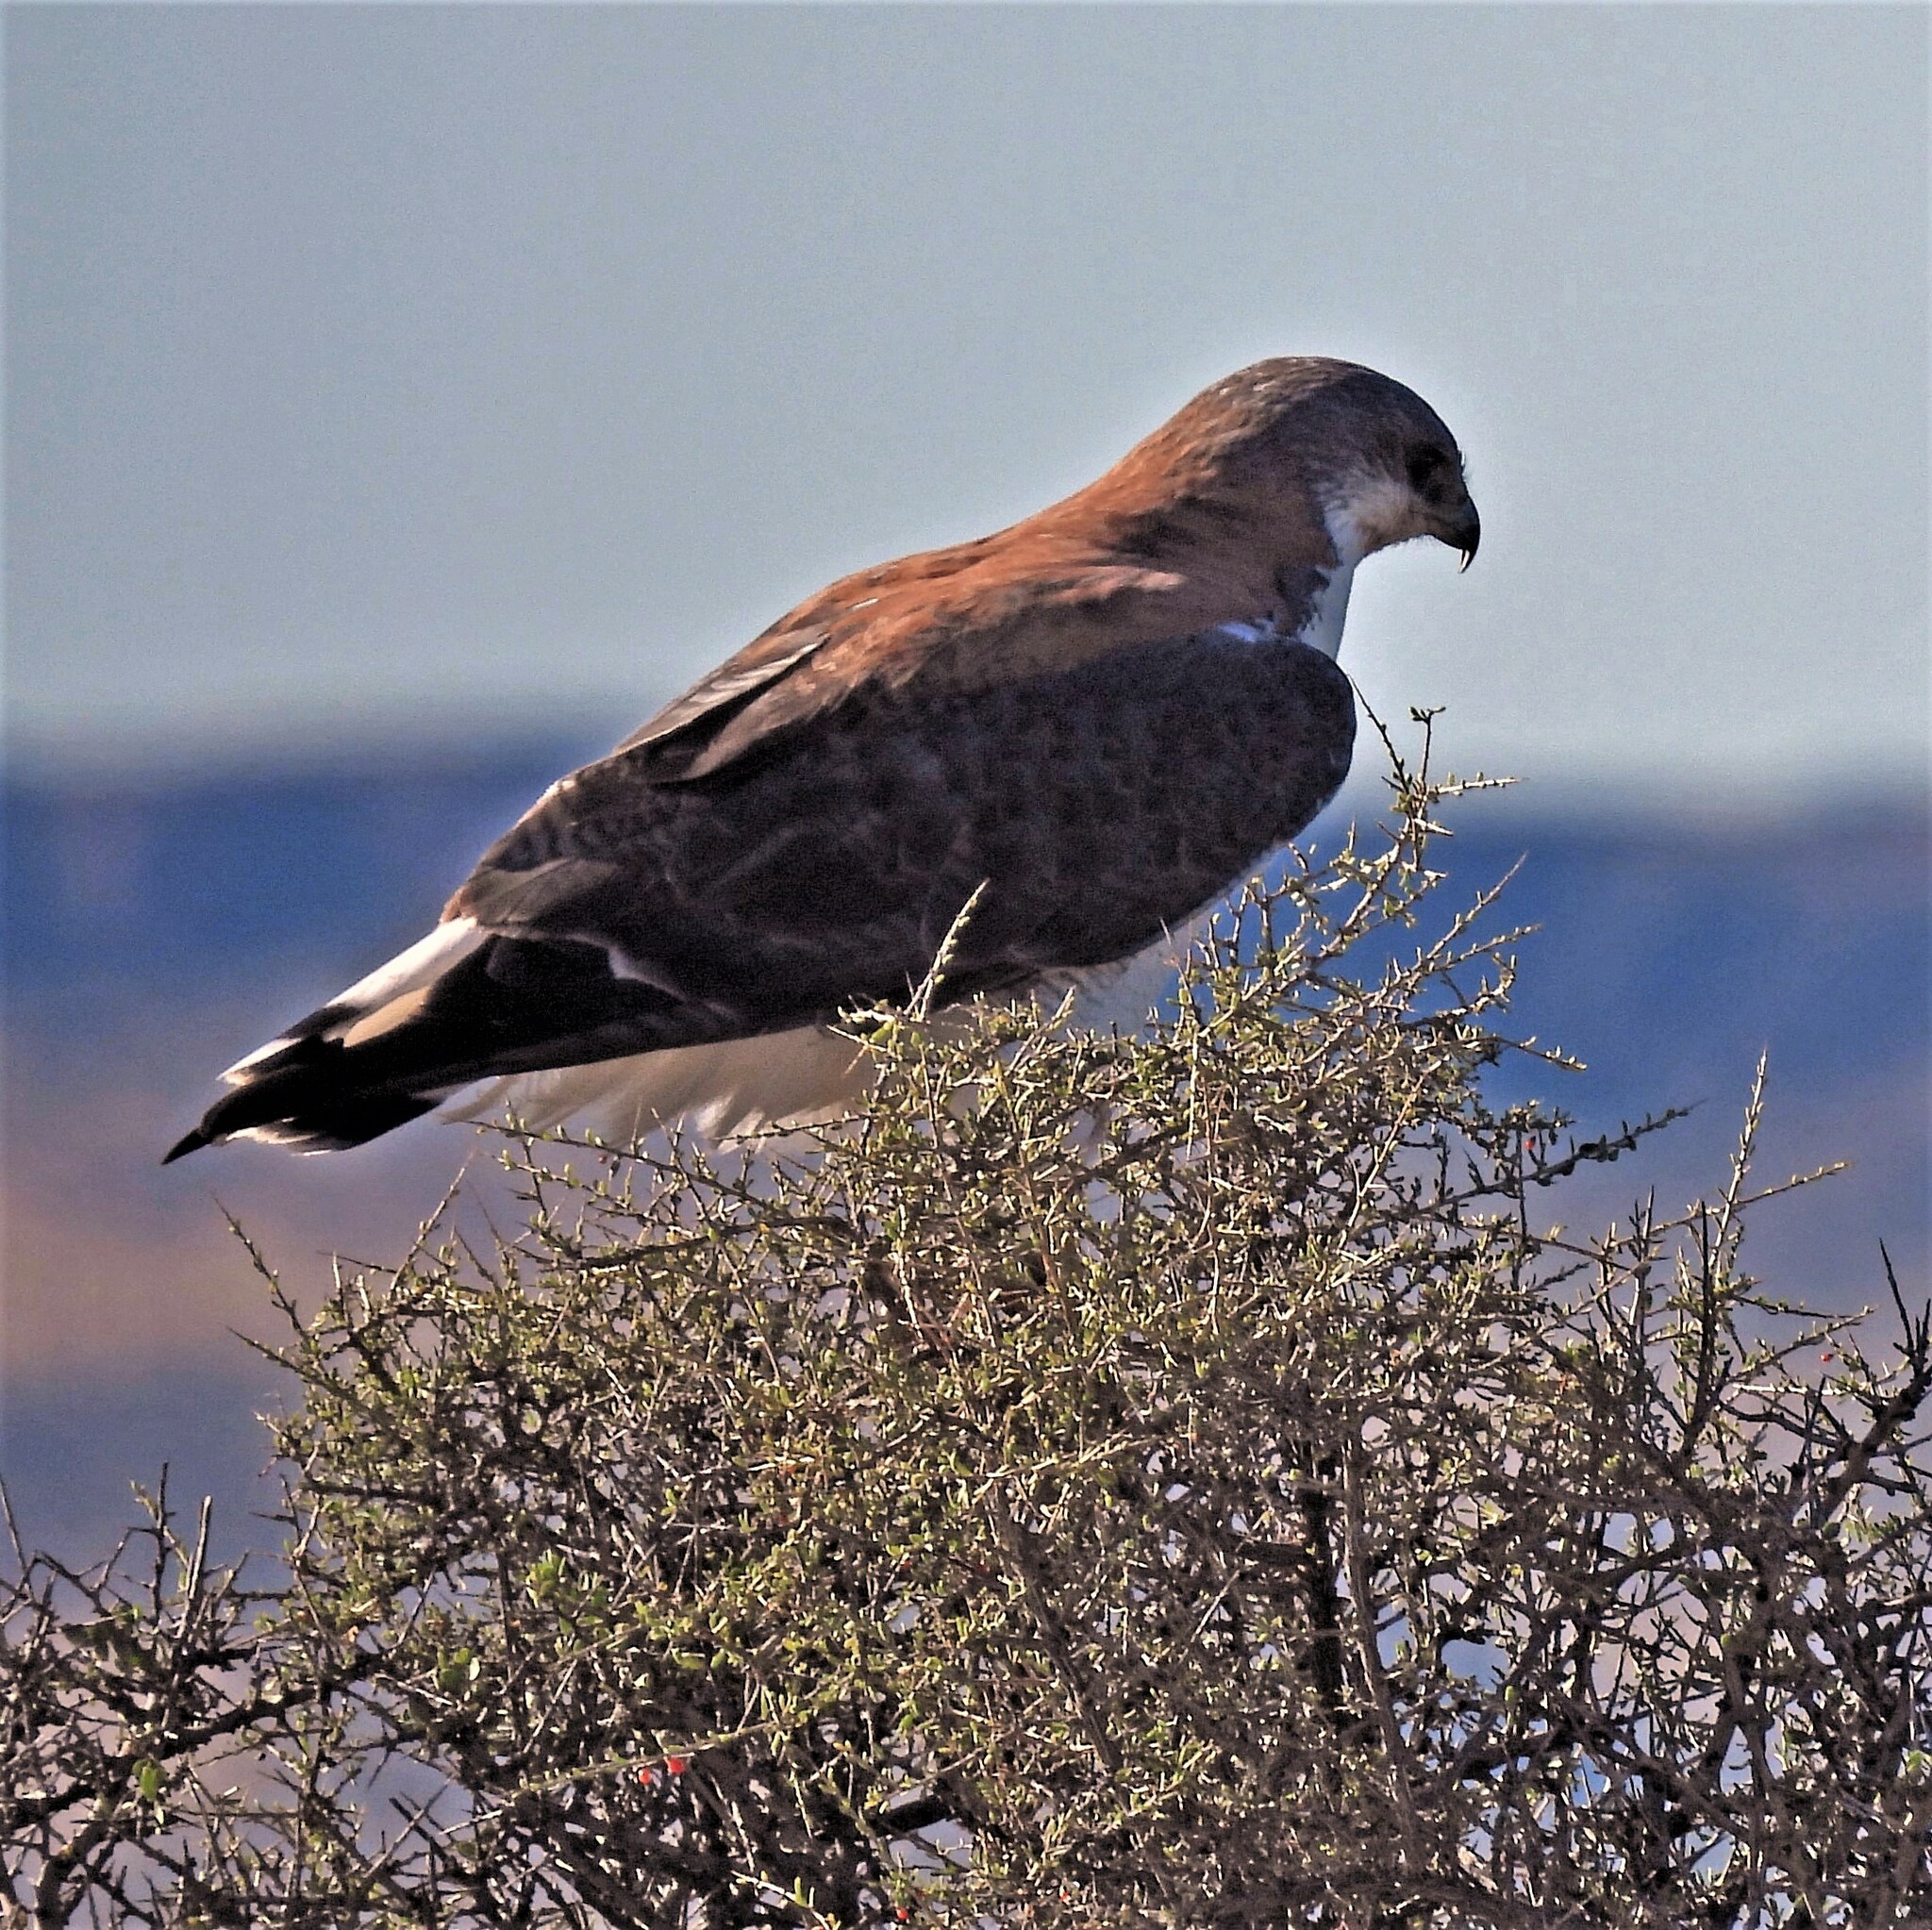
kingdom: Animalia
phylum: Chordata
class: Aves
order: Accipitriformes
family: Accipitridae
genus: Buteo
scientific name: Buteo polyosoma
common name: Variable hawk
